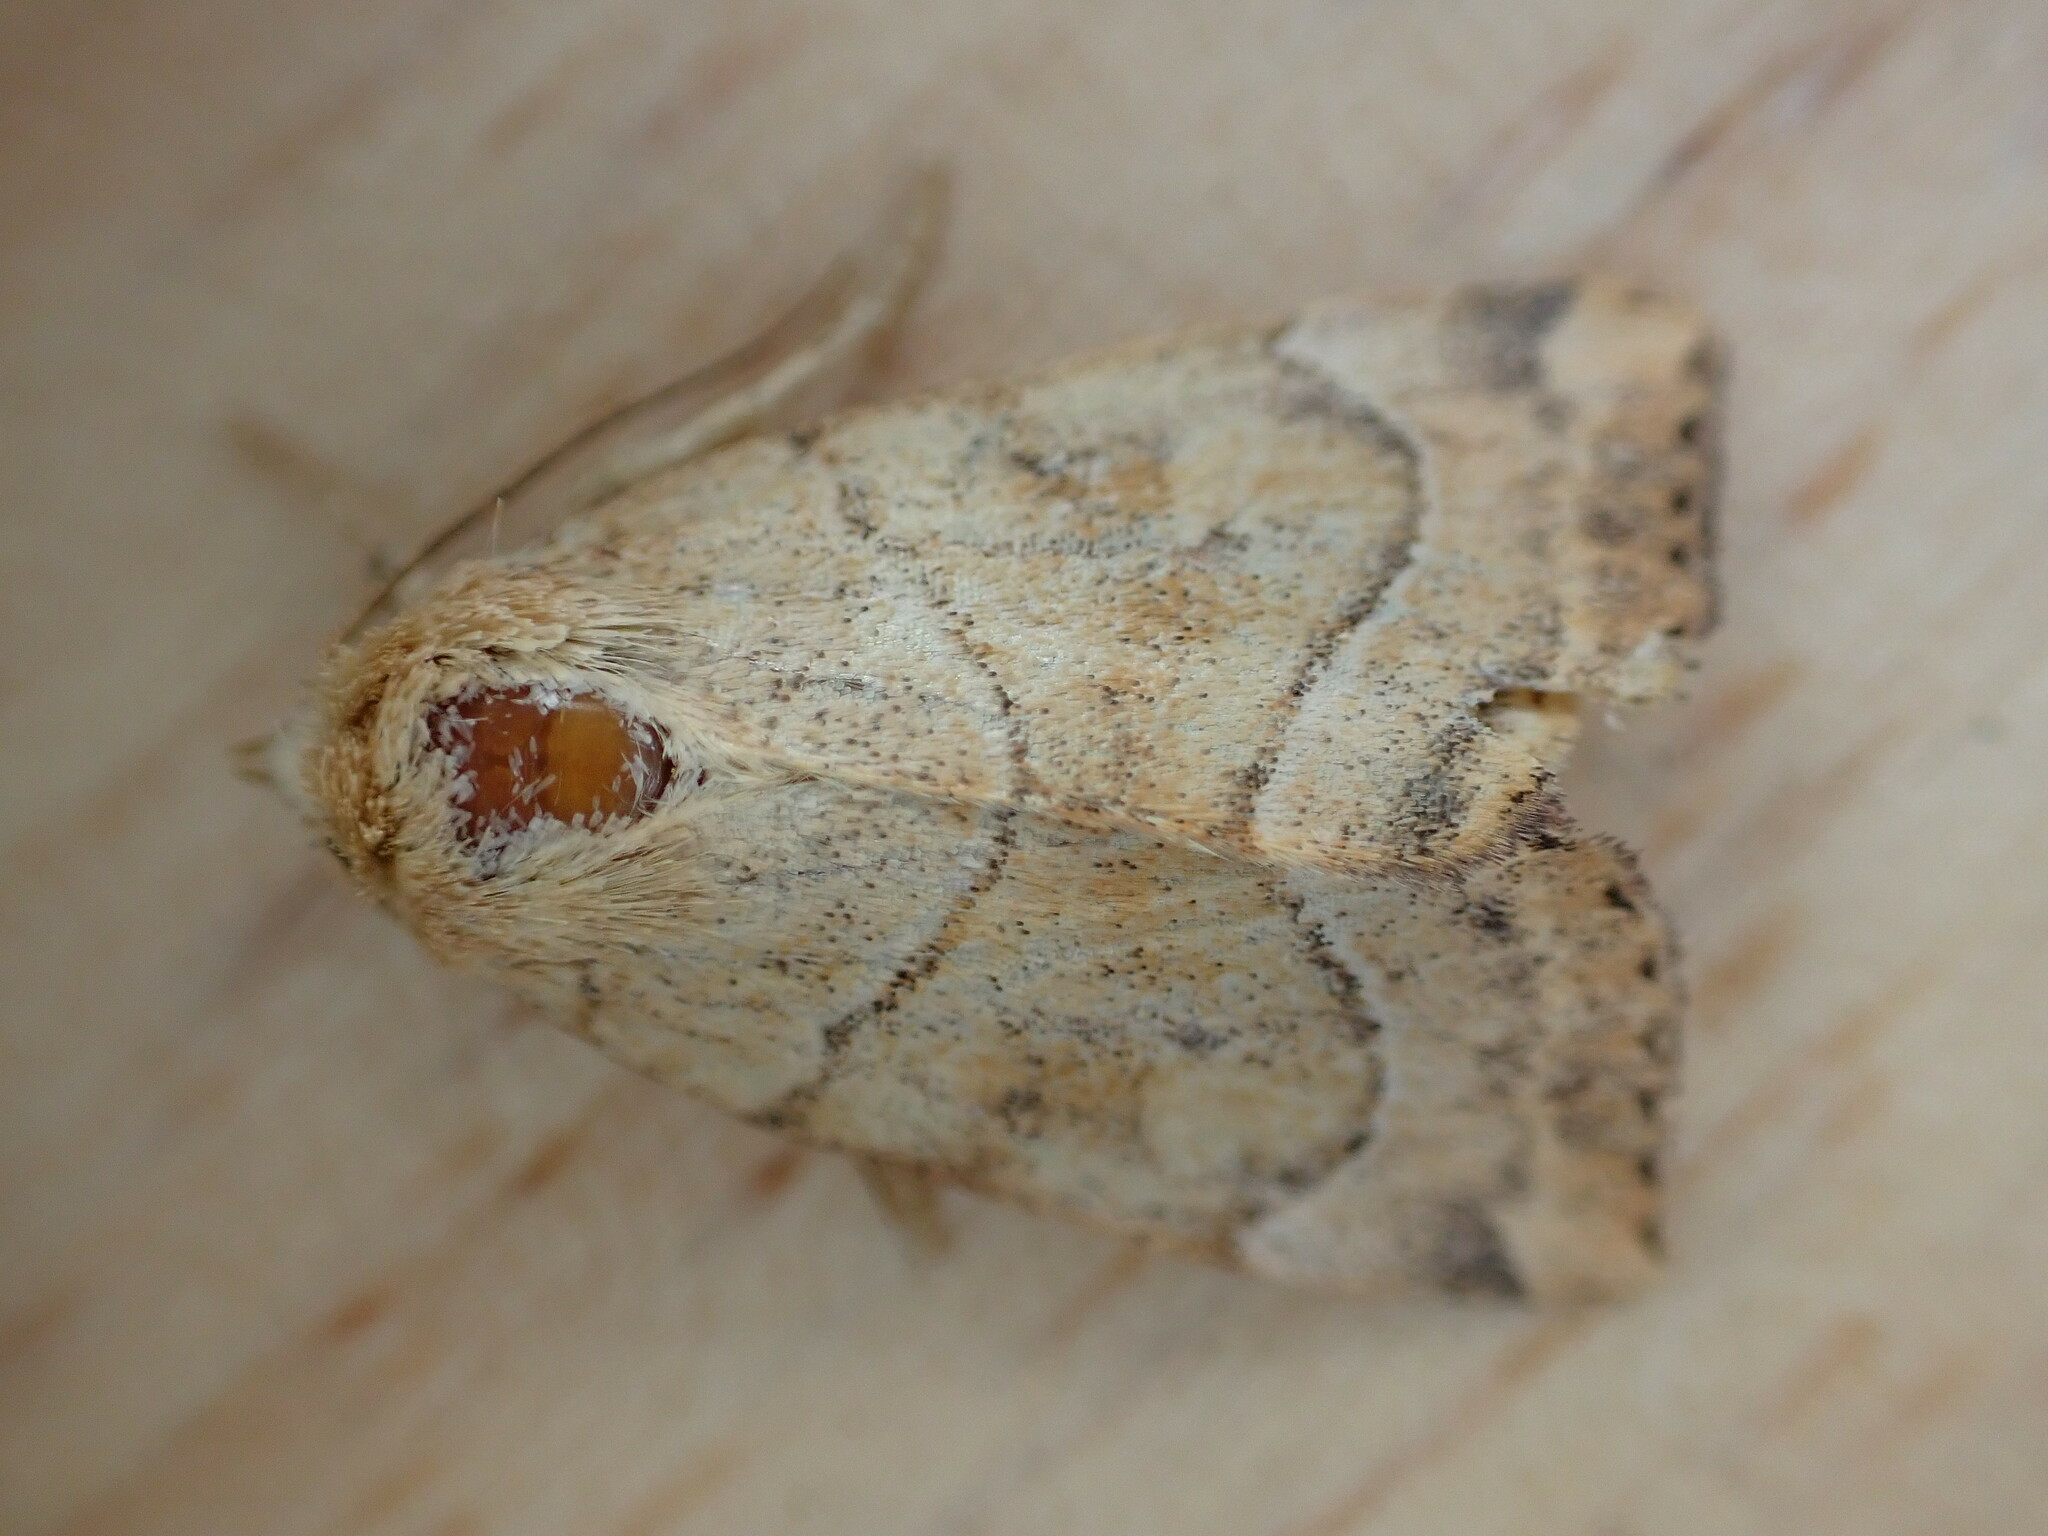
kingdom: Animalia
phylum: Arthropoda
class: Insecta
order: Lepidoptera
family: Noctuidae
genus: Cosmia
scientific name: Cosmia trapezina
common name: Dun-bar
